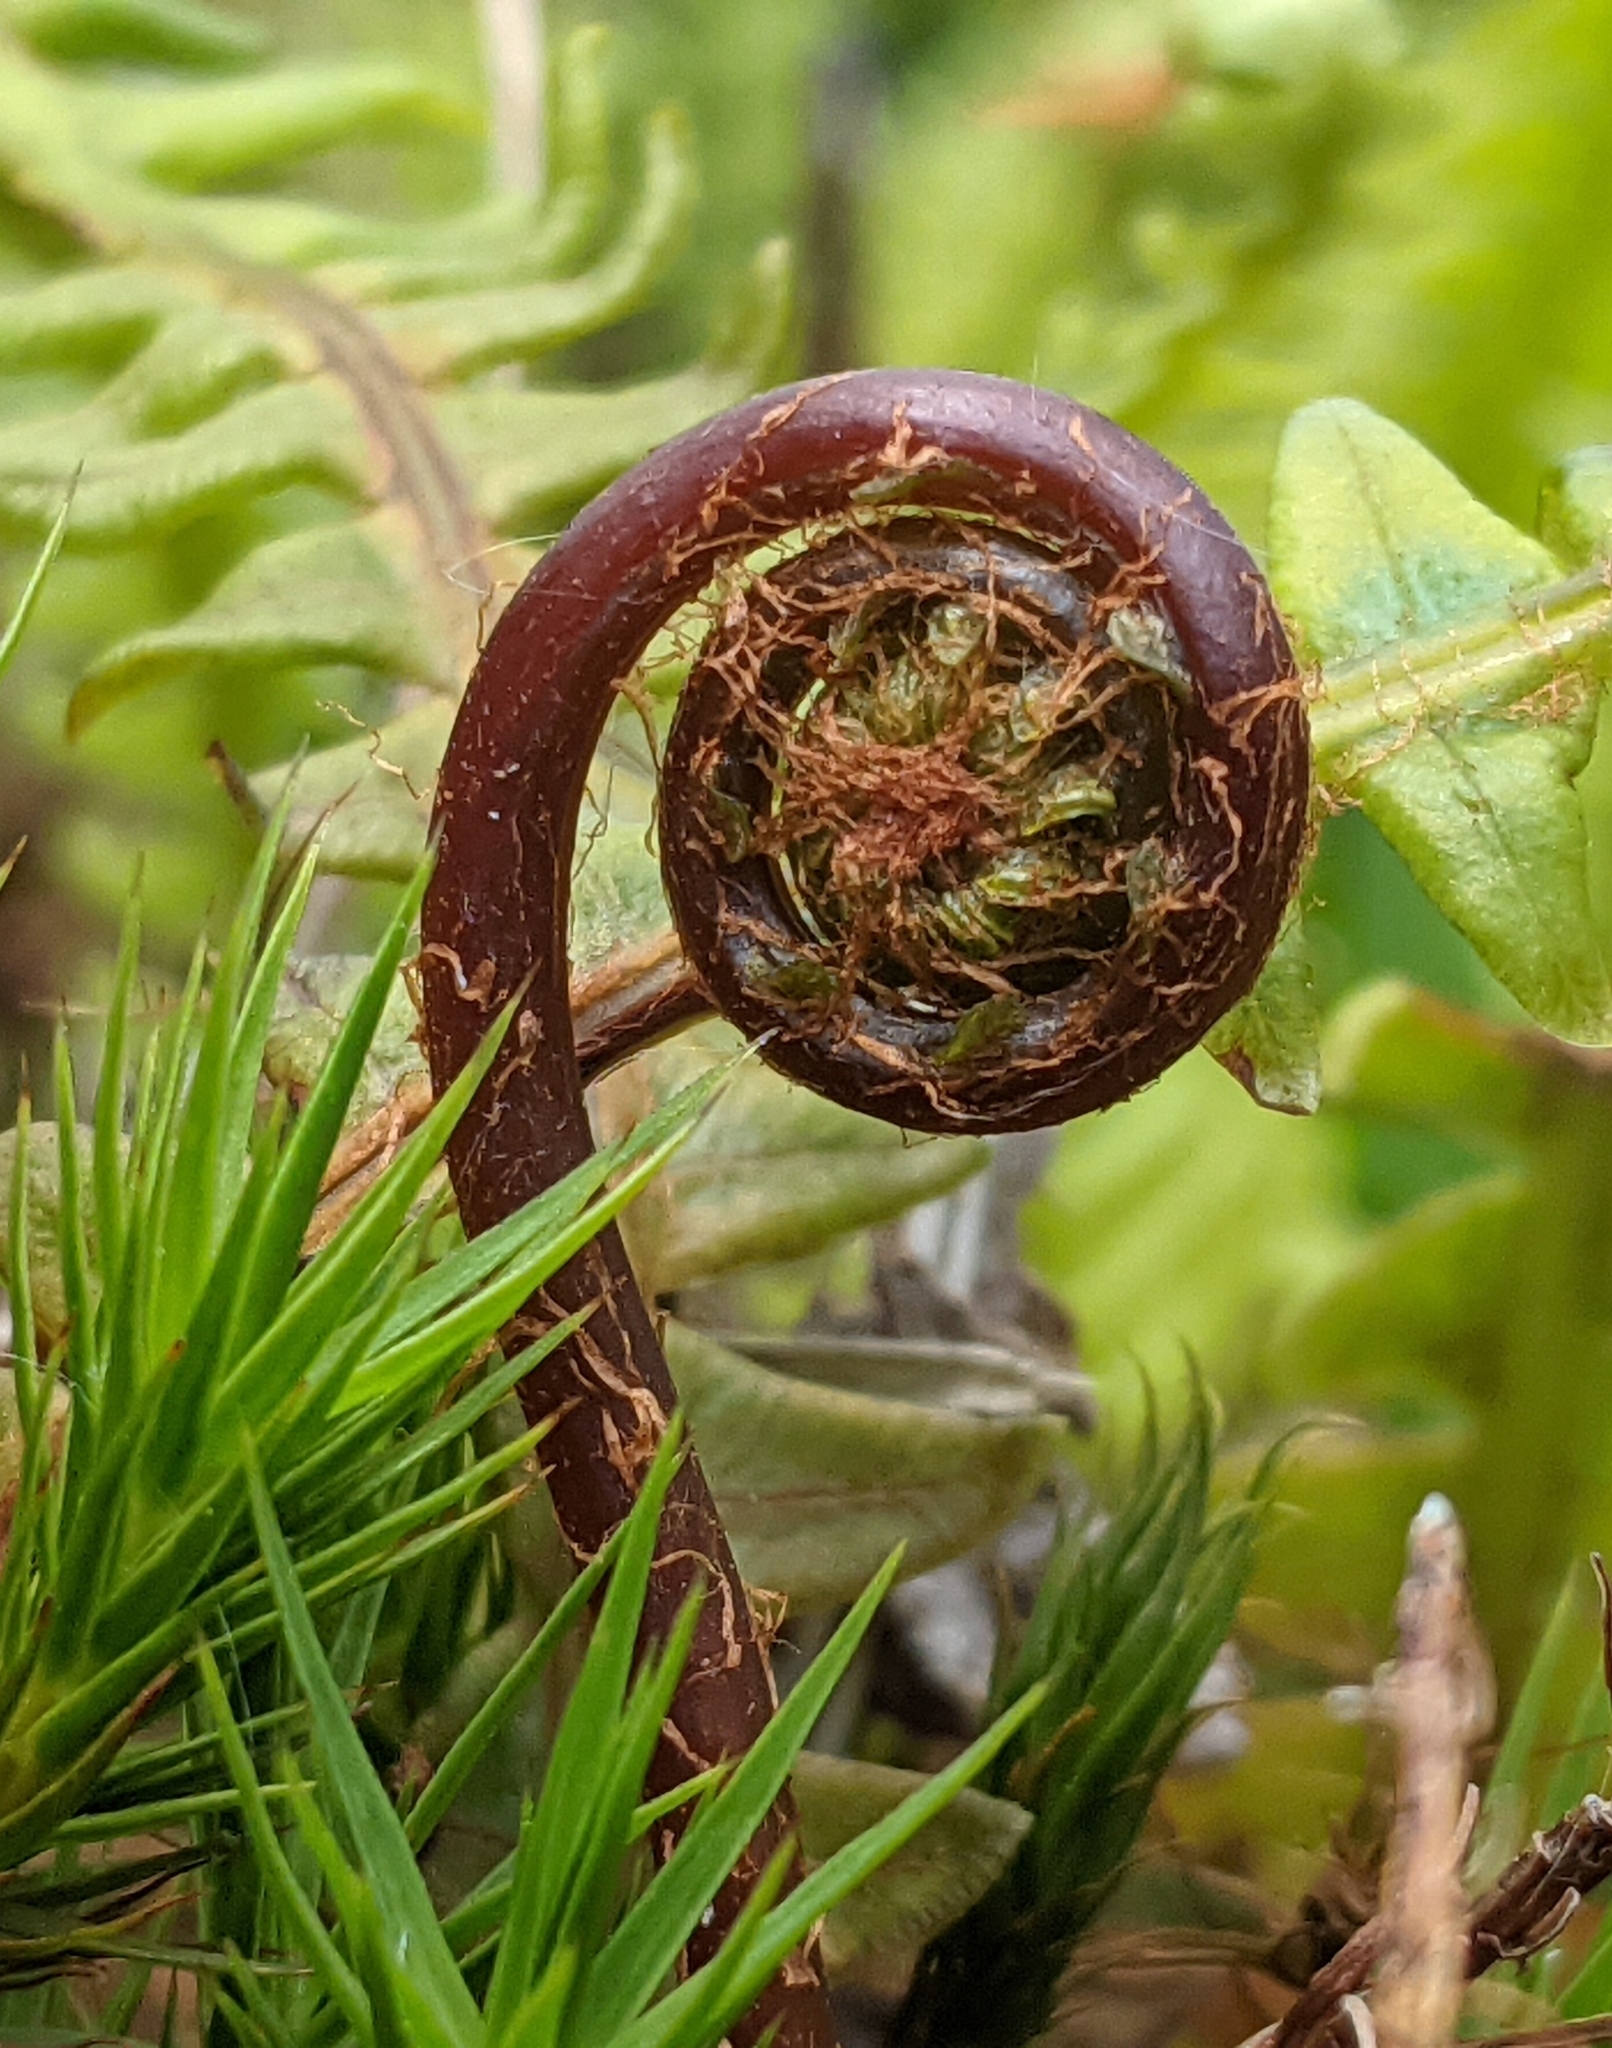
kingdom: Plantae
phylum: Tracheophyta
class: Polypodiopsida
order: Polypodiales
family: Blechnaceae
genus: Struthiopteris
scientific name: Struthiopteris spicant
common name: Deer fern
